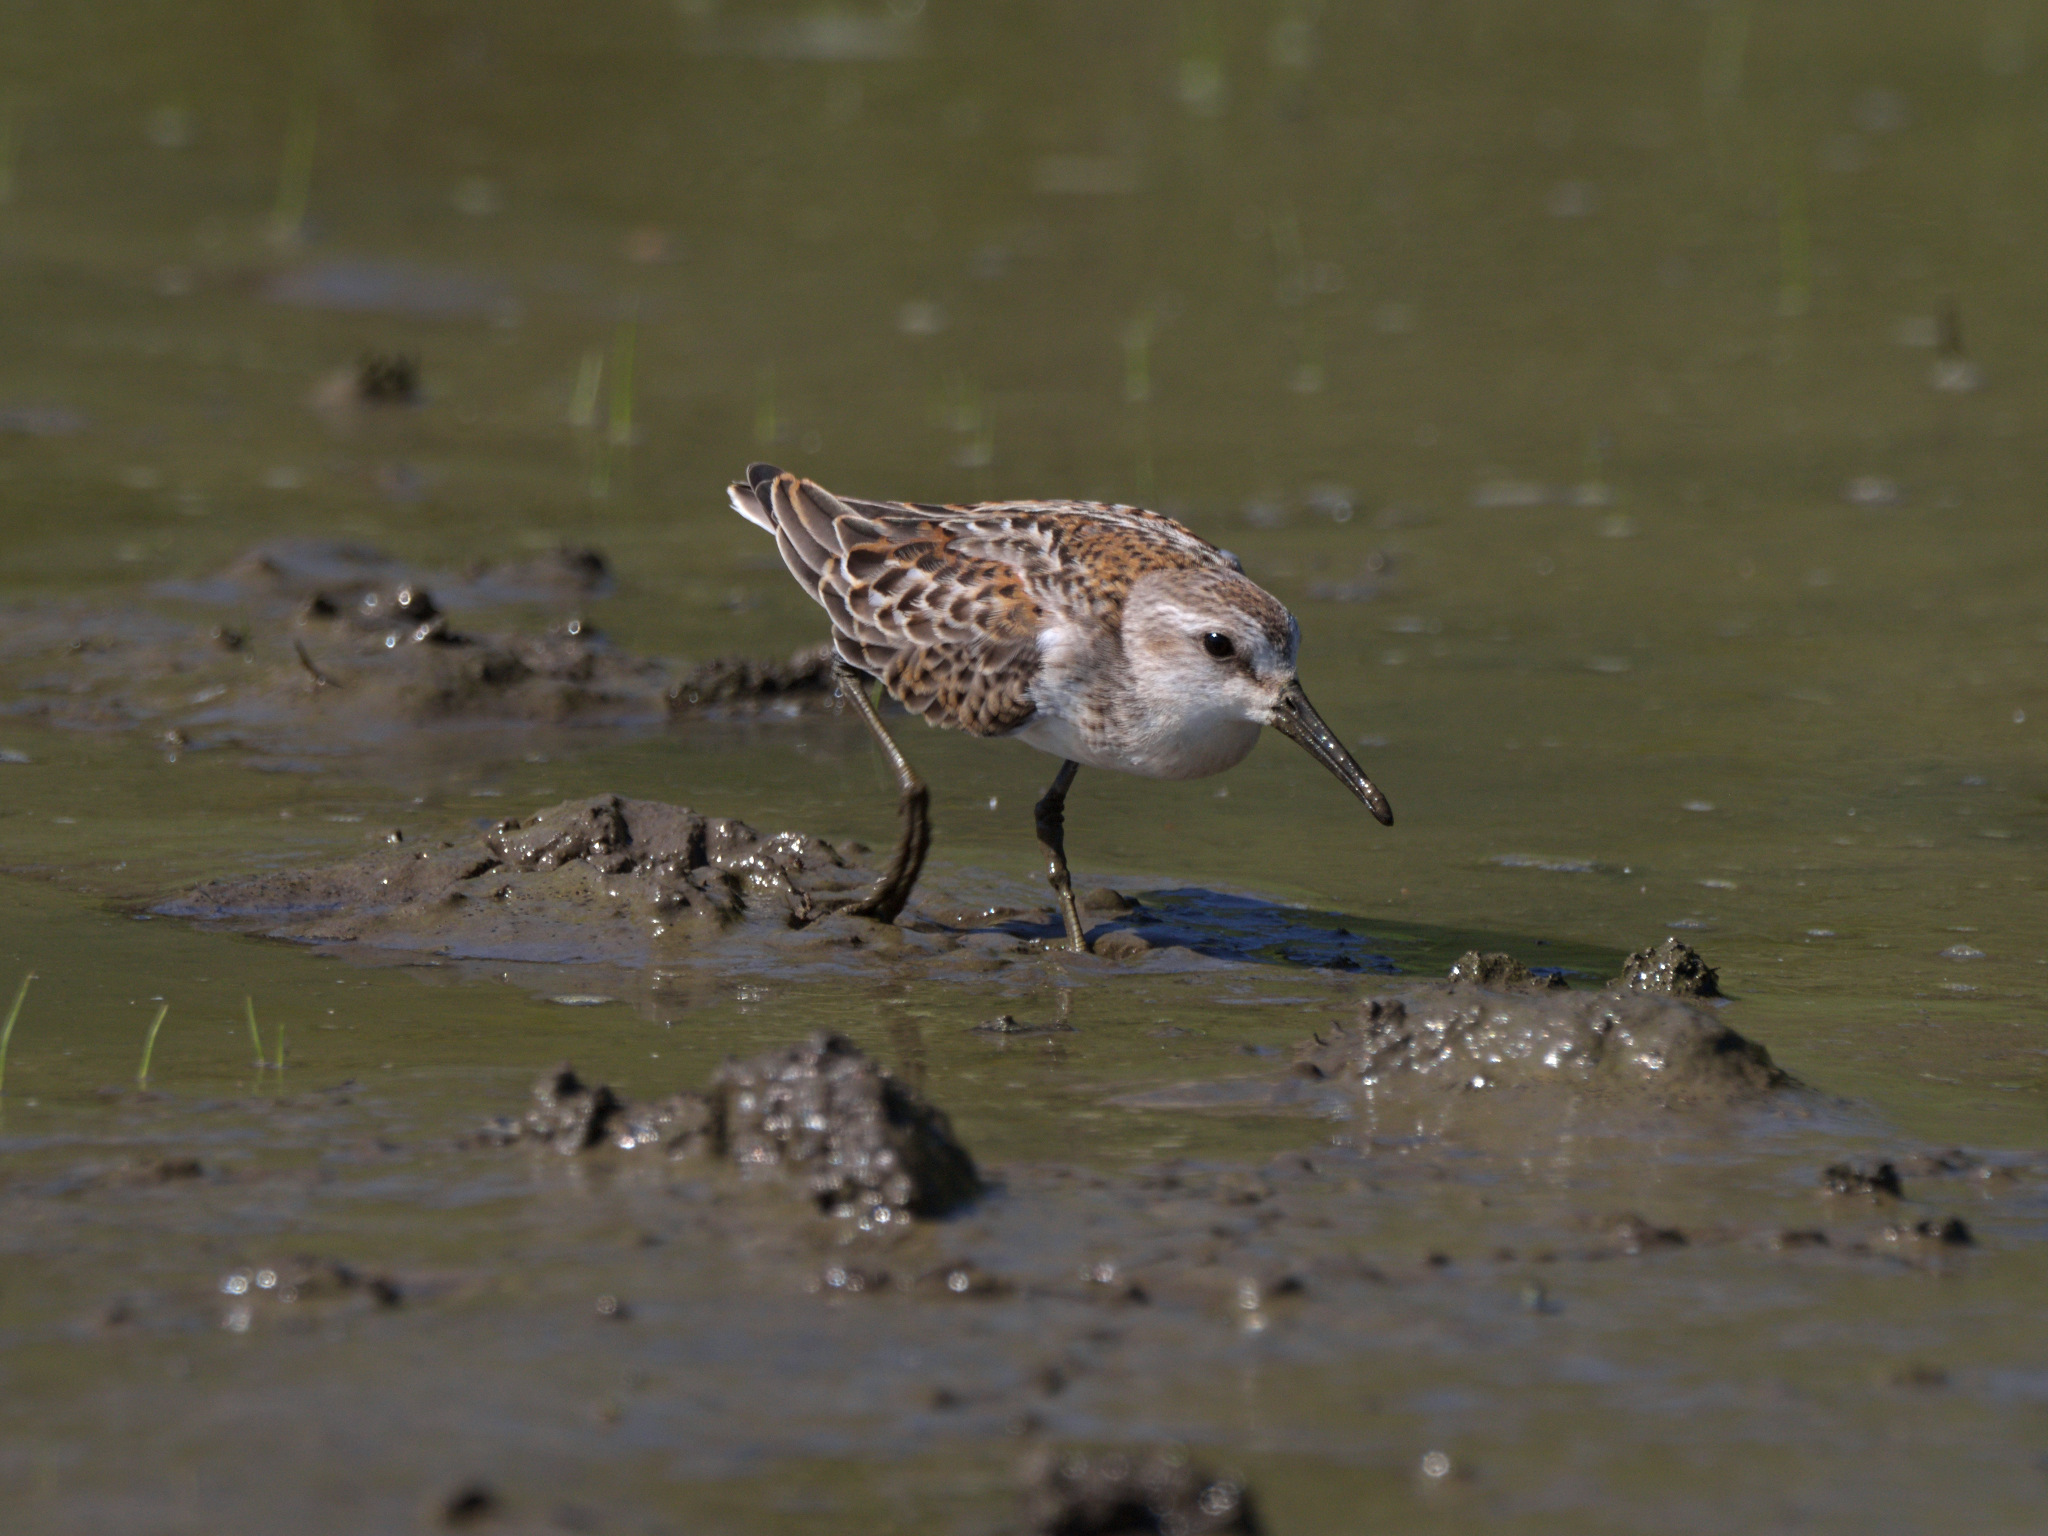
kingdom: Animalia
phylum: Chordata
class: Aves
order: Charadriiformes
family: Scolopacidae
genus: Calidris
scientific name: Calidris mauri
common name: Western sandpiper
